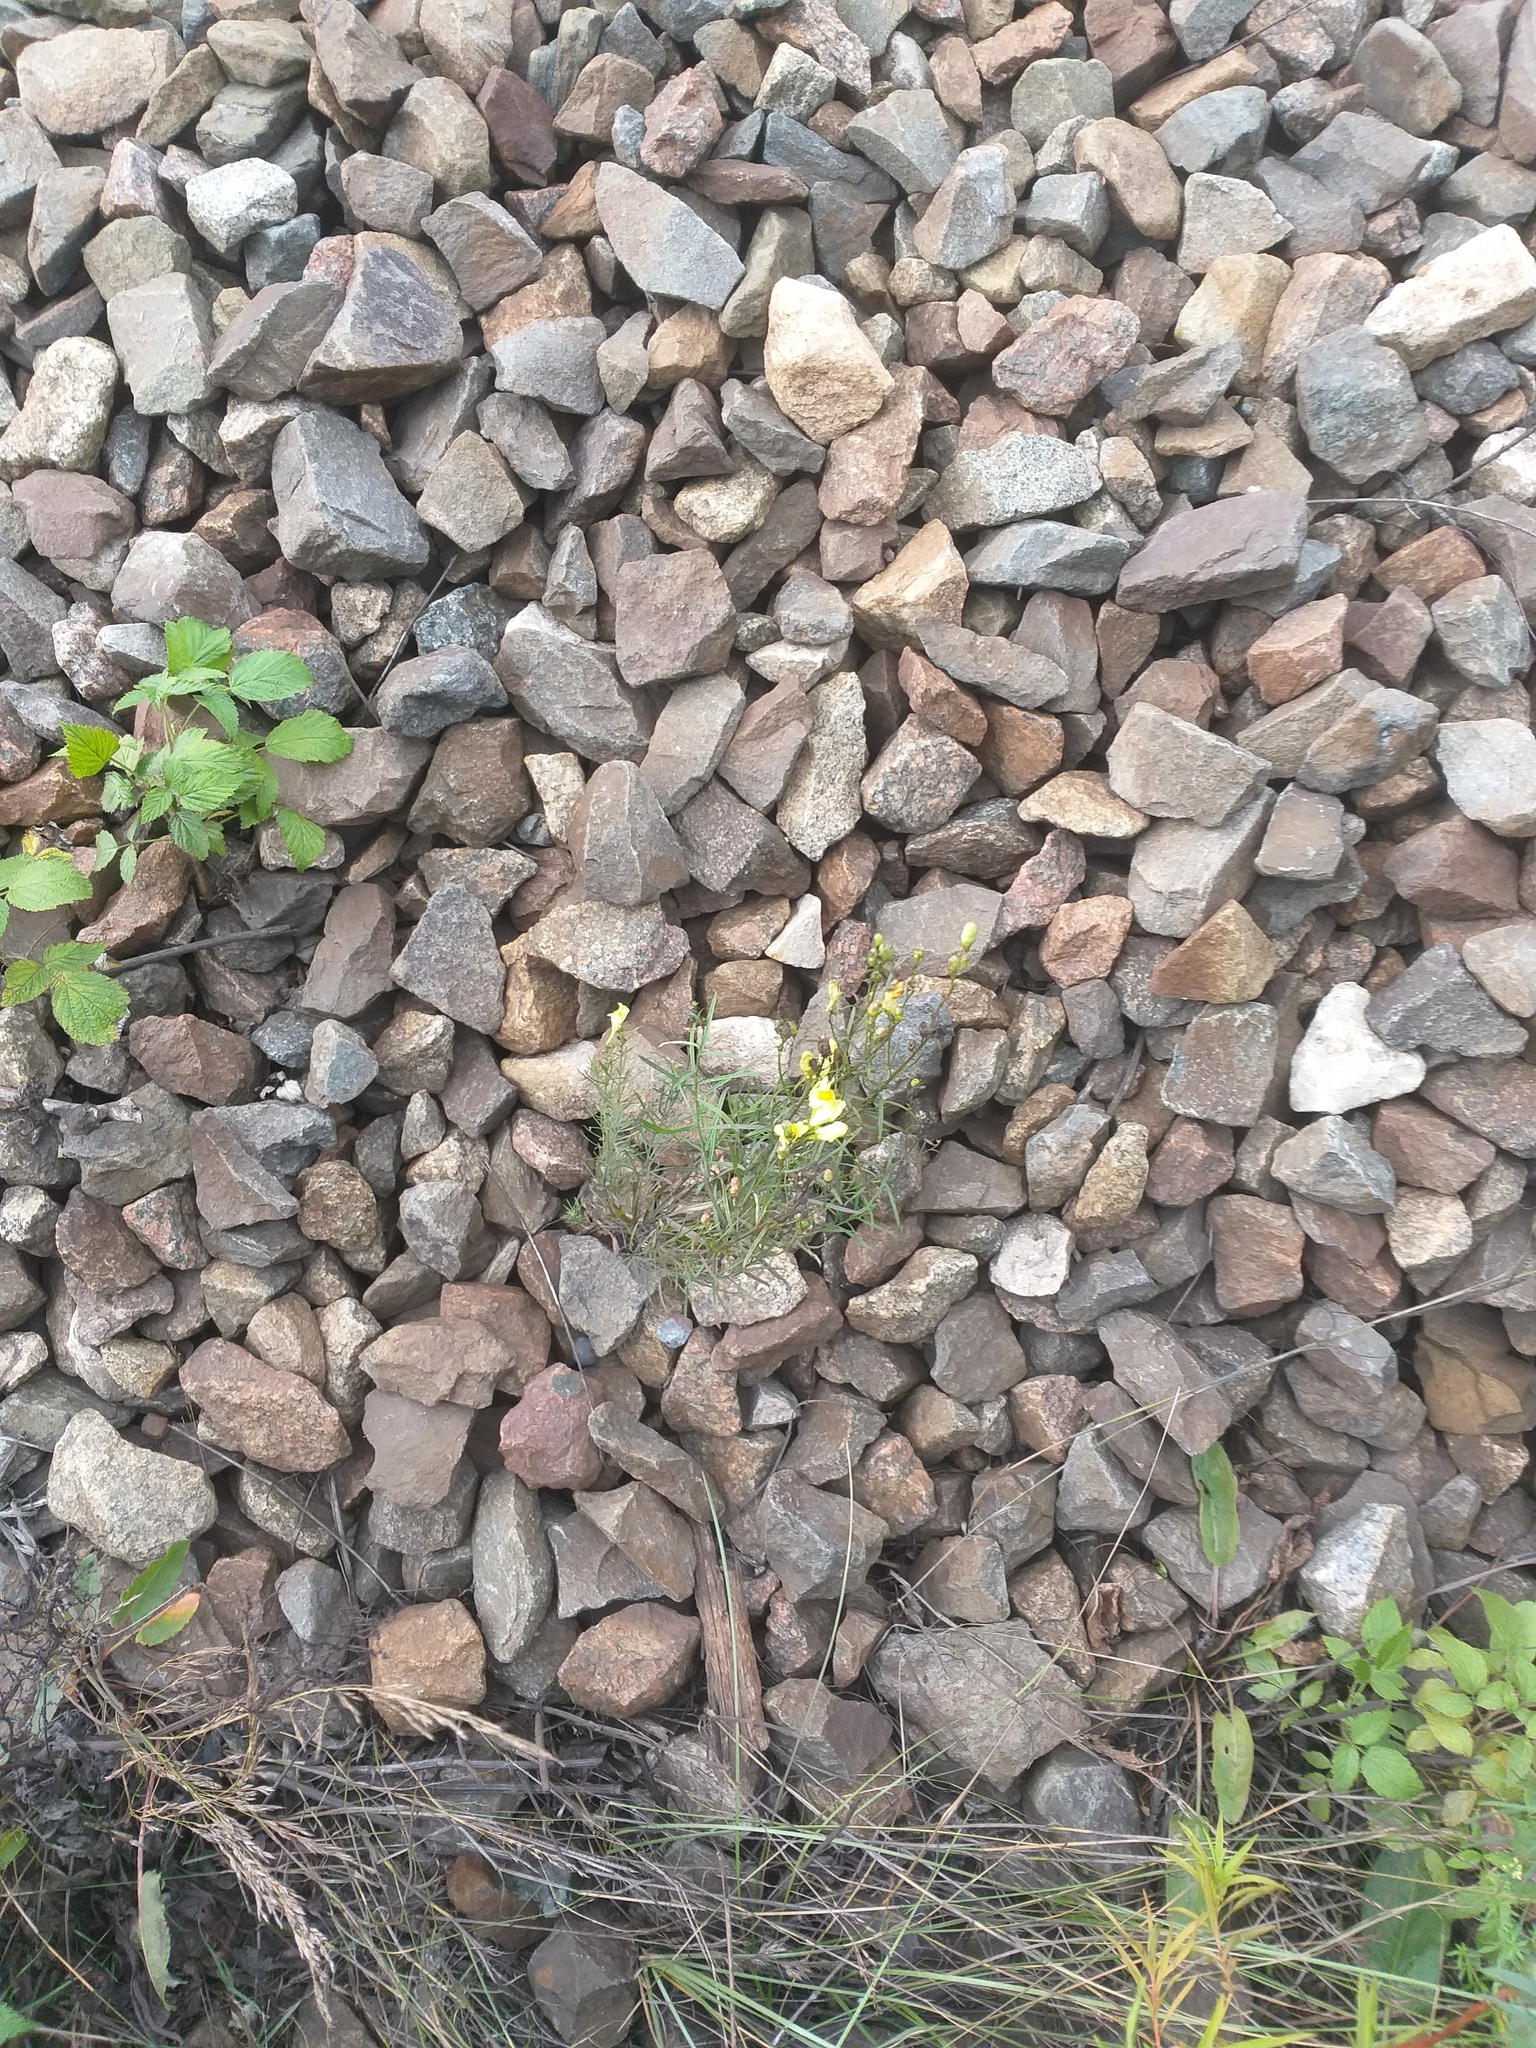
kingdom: Plantae
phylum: Tracheophyta
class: Magnoliopsida
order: Lamiales
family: Plantaginaceae
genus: Linaria
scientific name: Linaria vulgaris
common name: Butter and eggs
